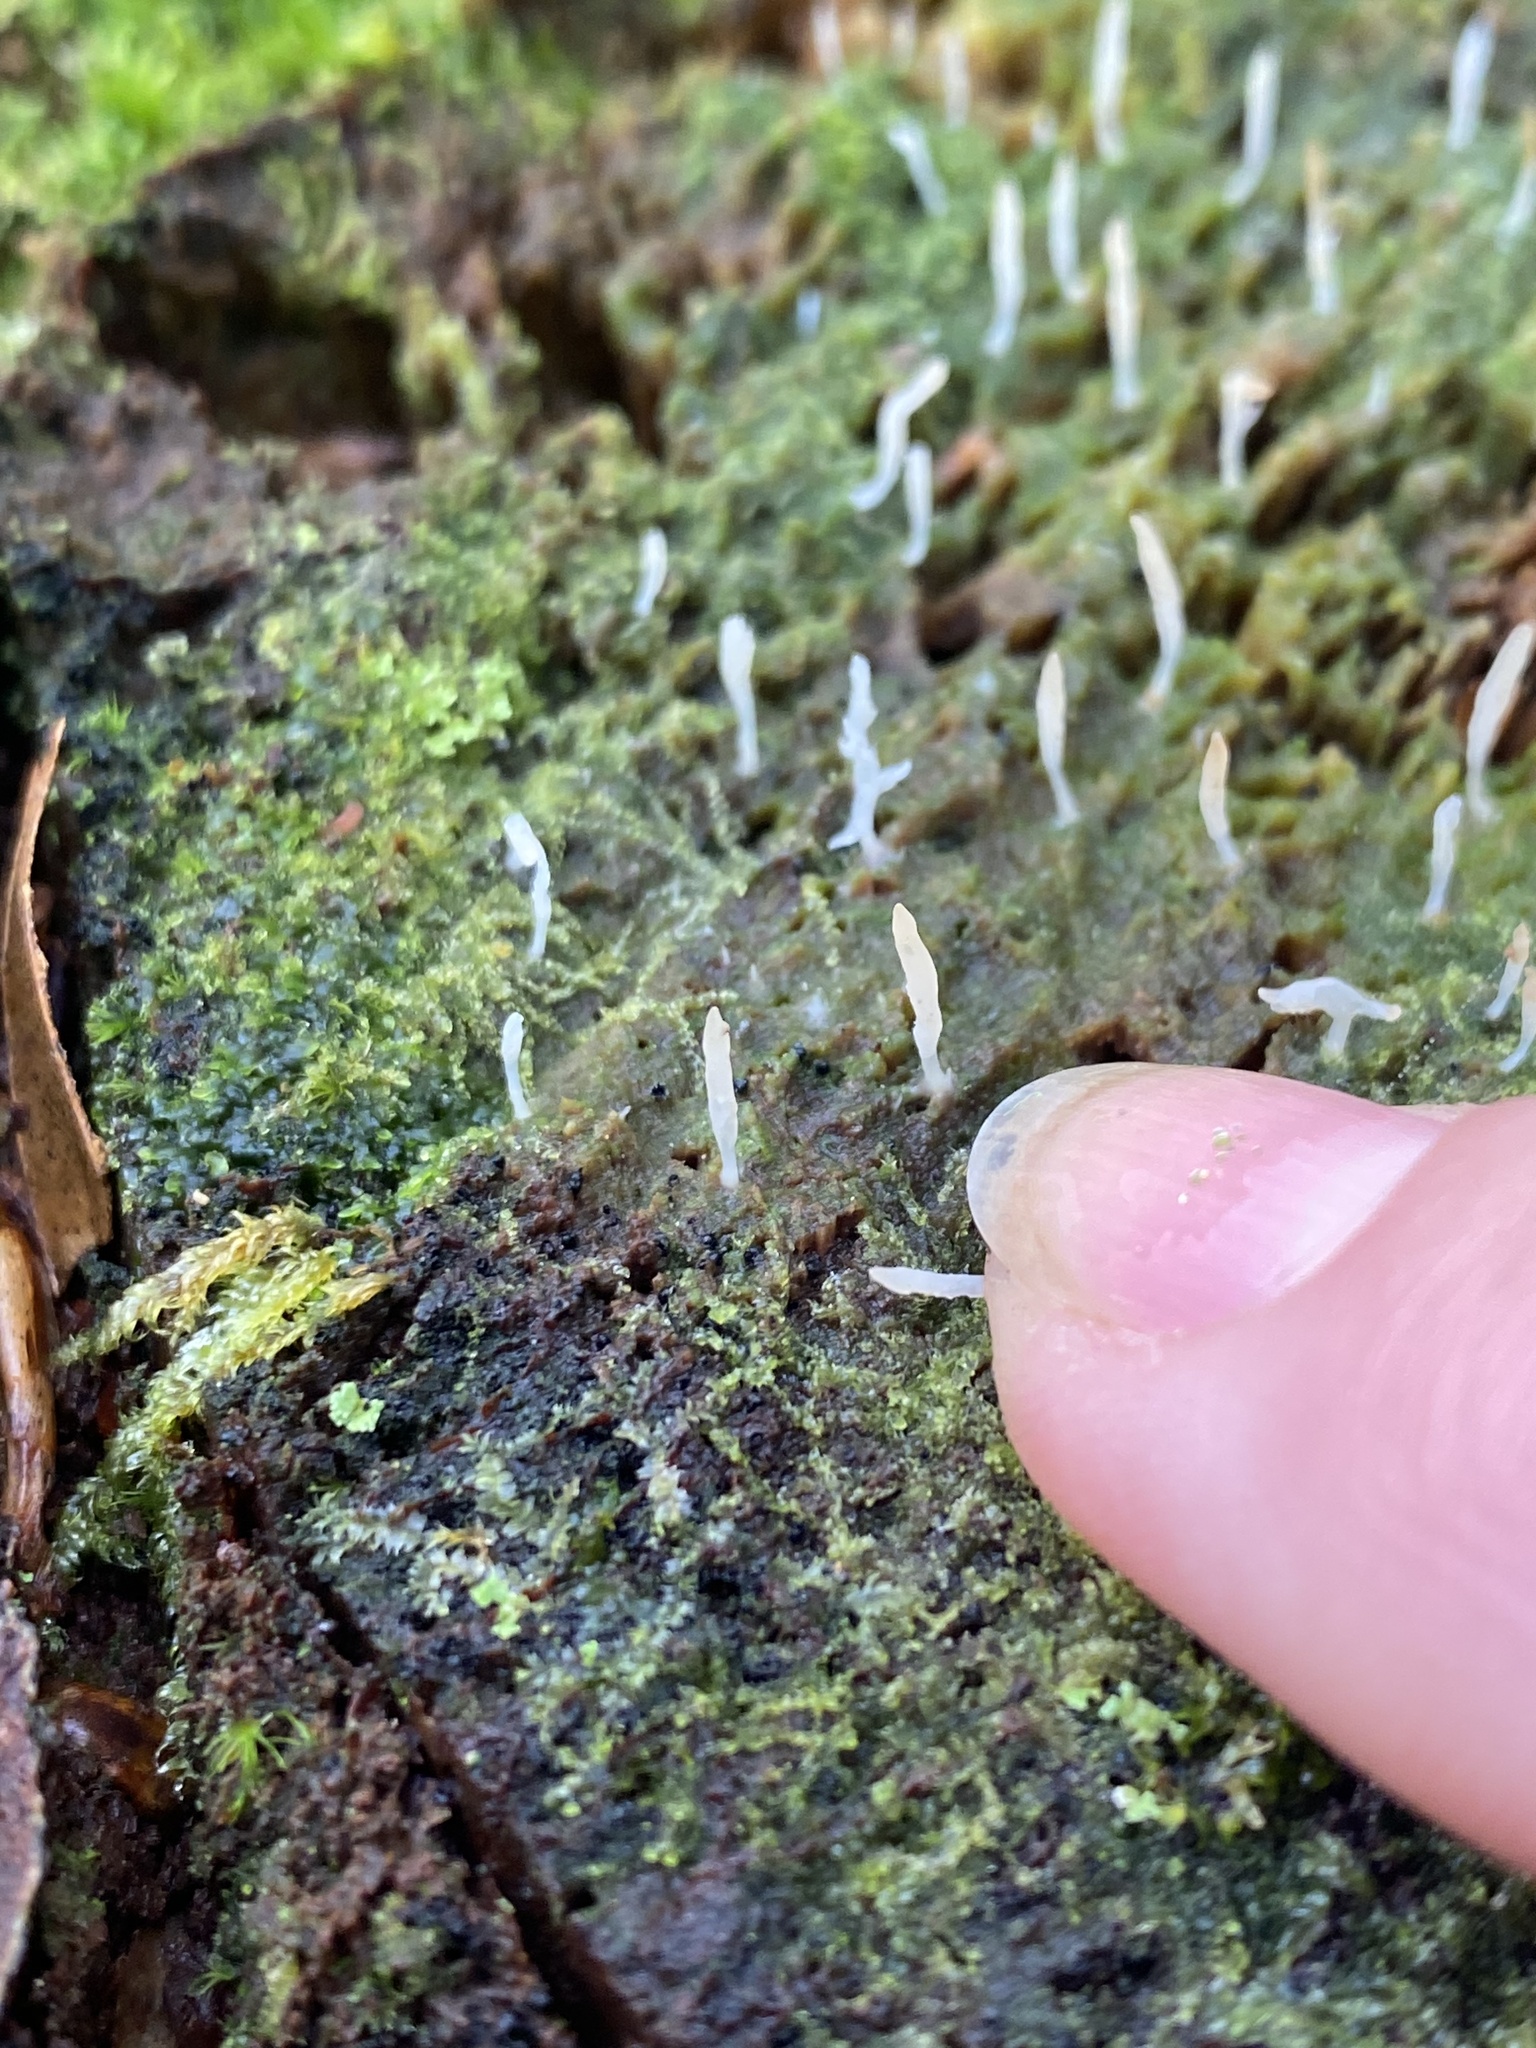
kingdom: Fungi
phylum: Basidiomycota
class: Agaricomycetes
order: Cantharellales
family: Hydnaceae
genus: Multiclavula
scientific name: Multiclavula mucida
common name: White green-algae coral
